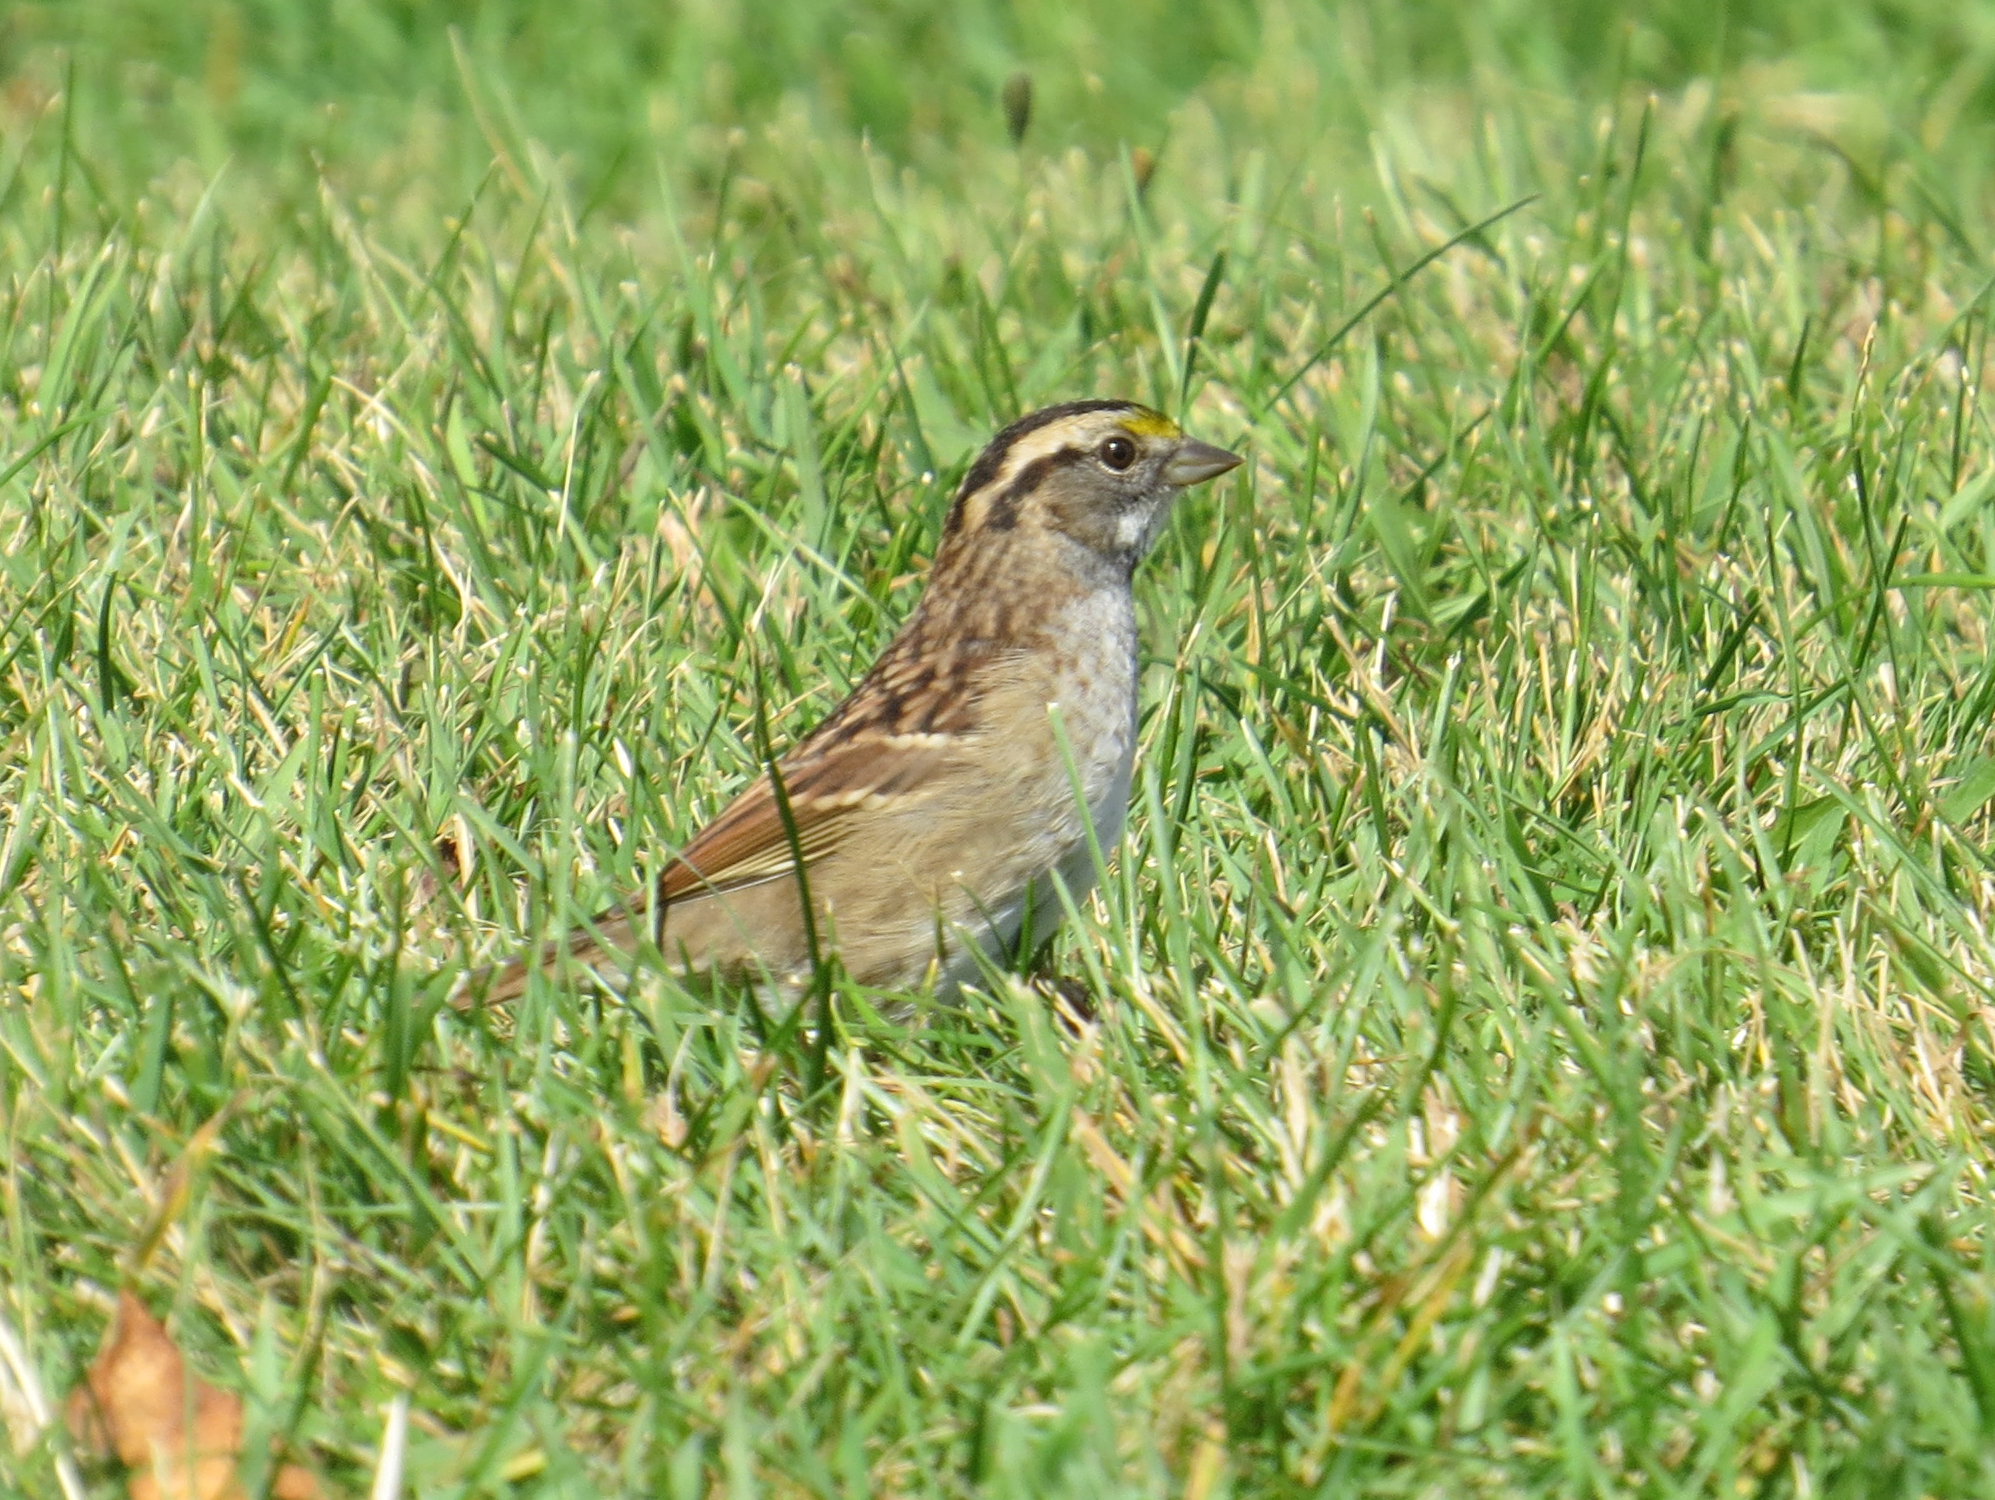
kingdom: Animalia
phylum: Chordata
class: Aves
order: Passeriformes
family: Passerellidae
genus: Zonotrichia
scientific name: Zonotrichia albicollis
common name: White-throated sparrow
